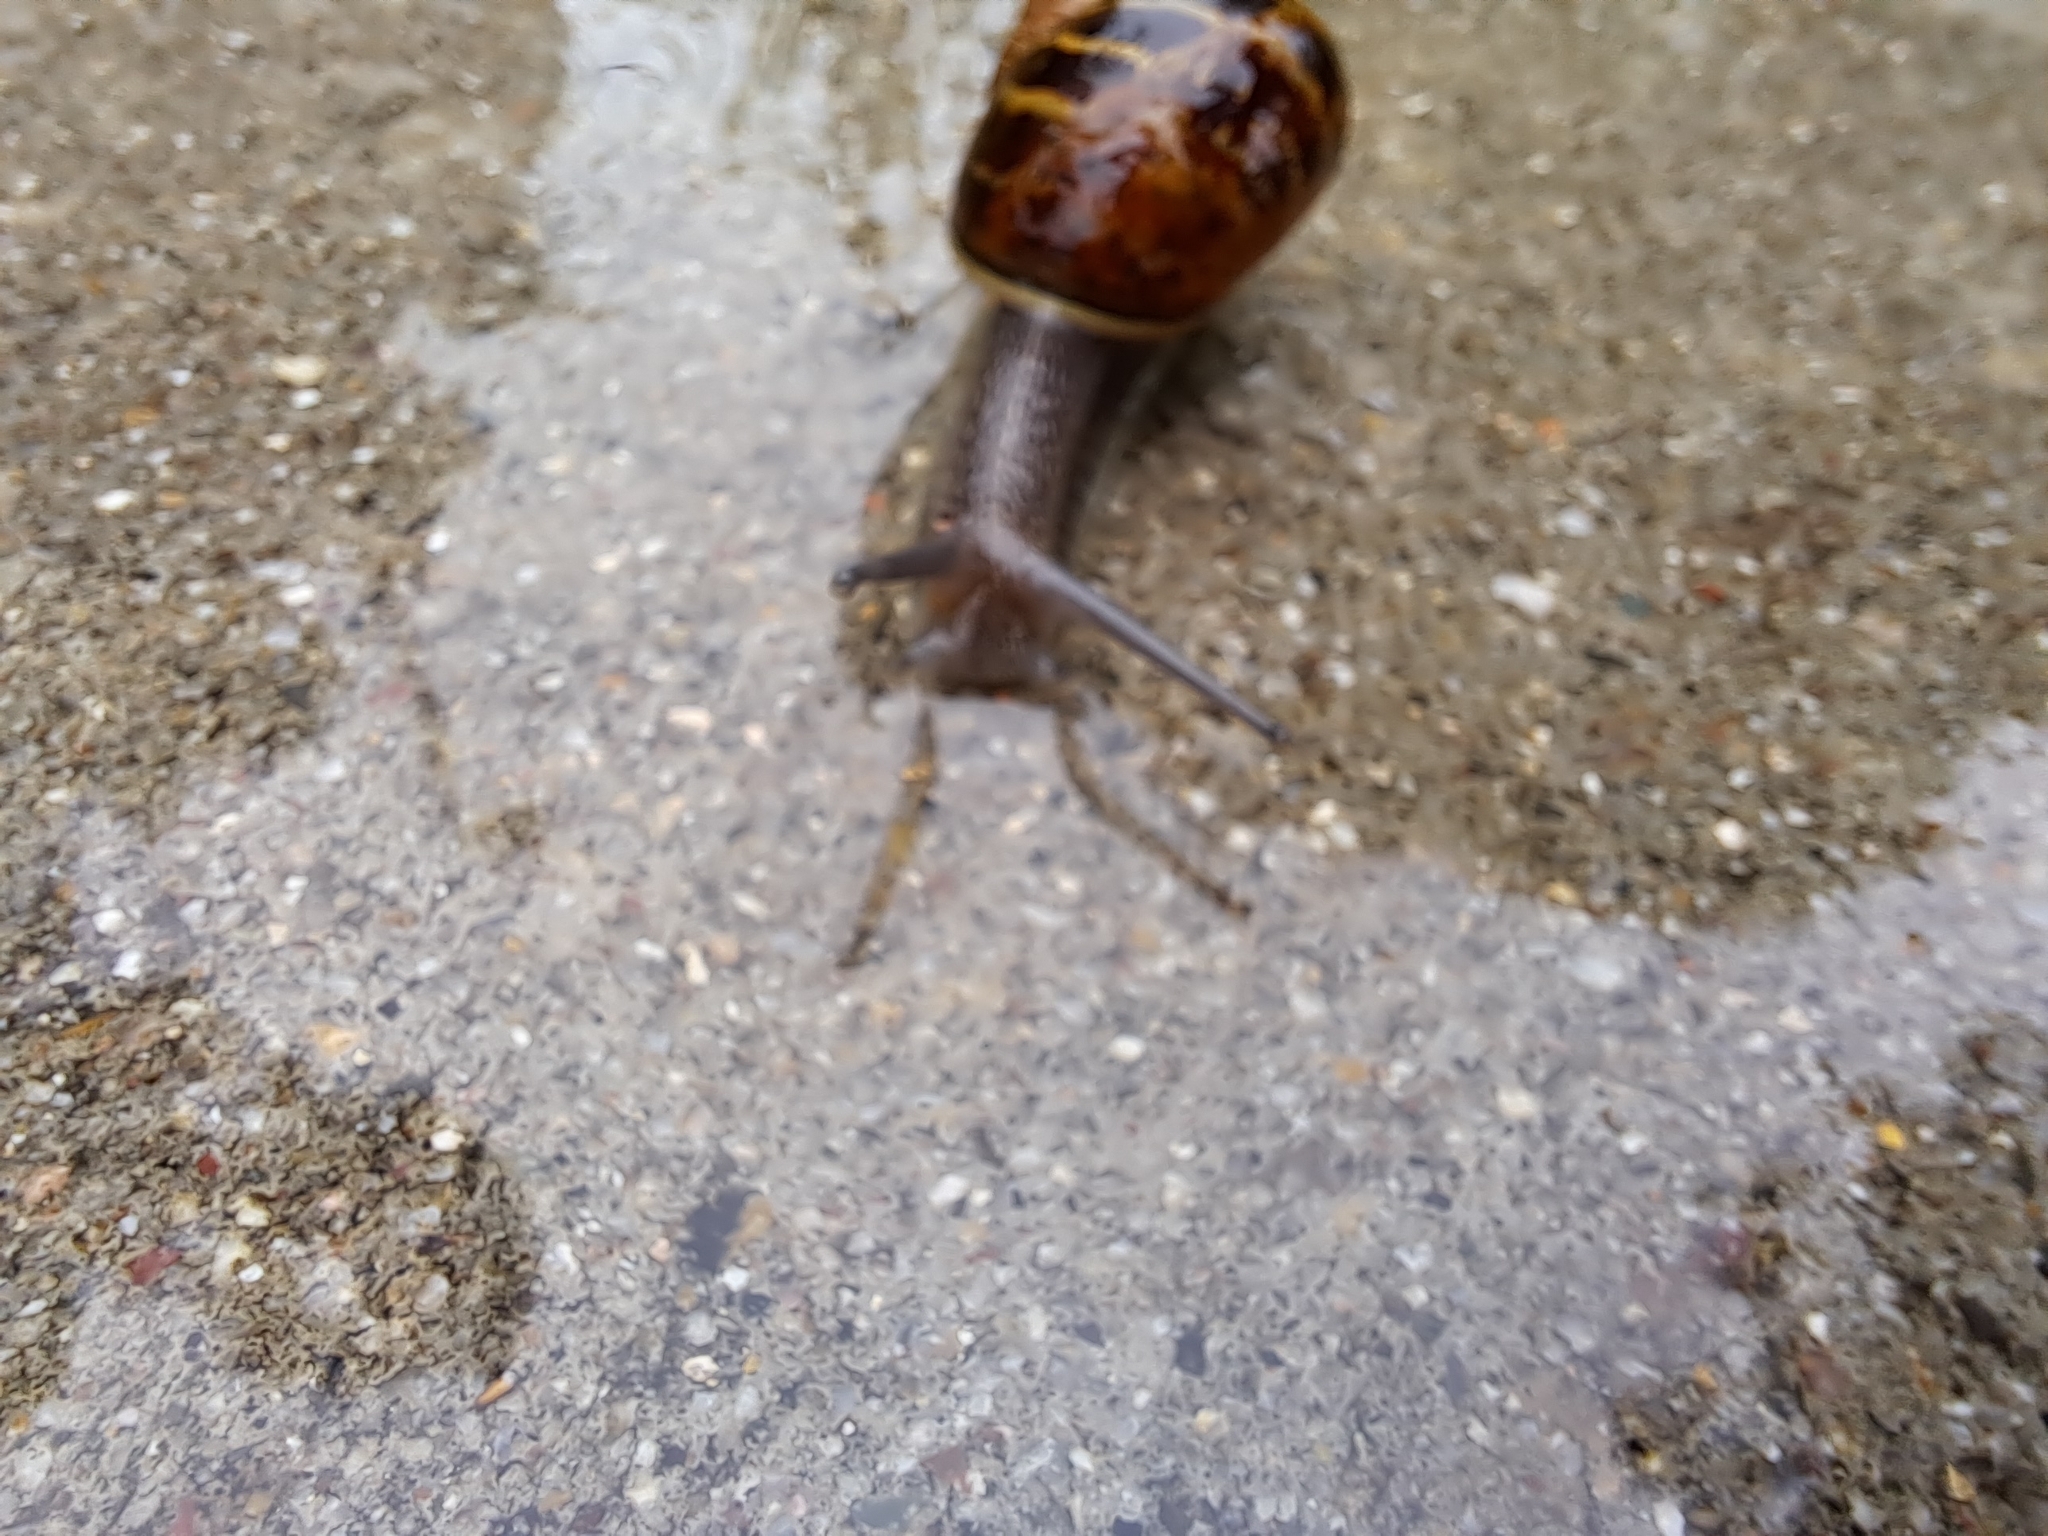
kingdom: Animalia
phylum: Mollusca
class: Gastropoda
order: Stylommatophora
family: Helicidae
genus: Cornu
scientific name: Cornu aspersum
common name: Brown garden snail
